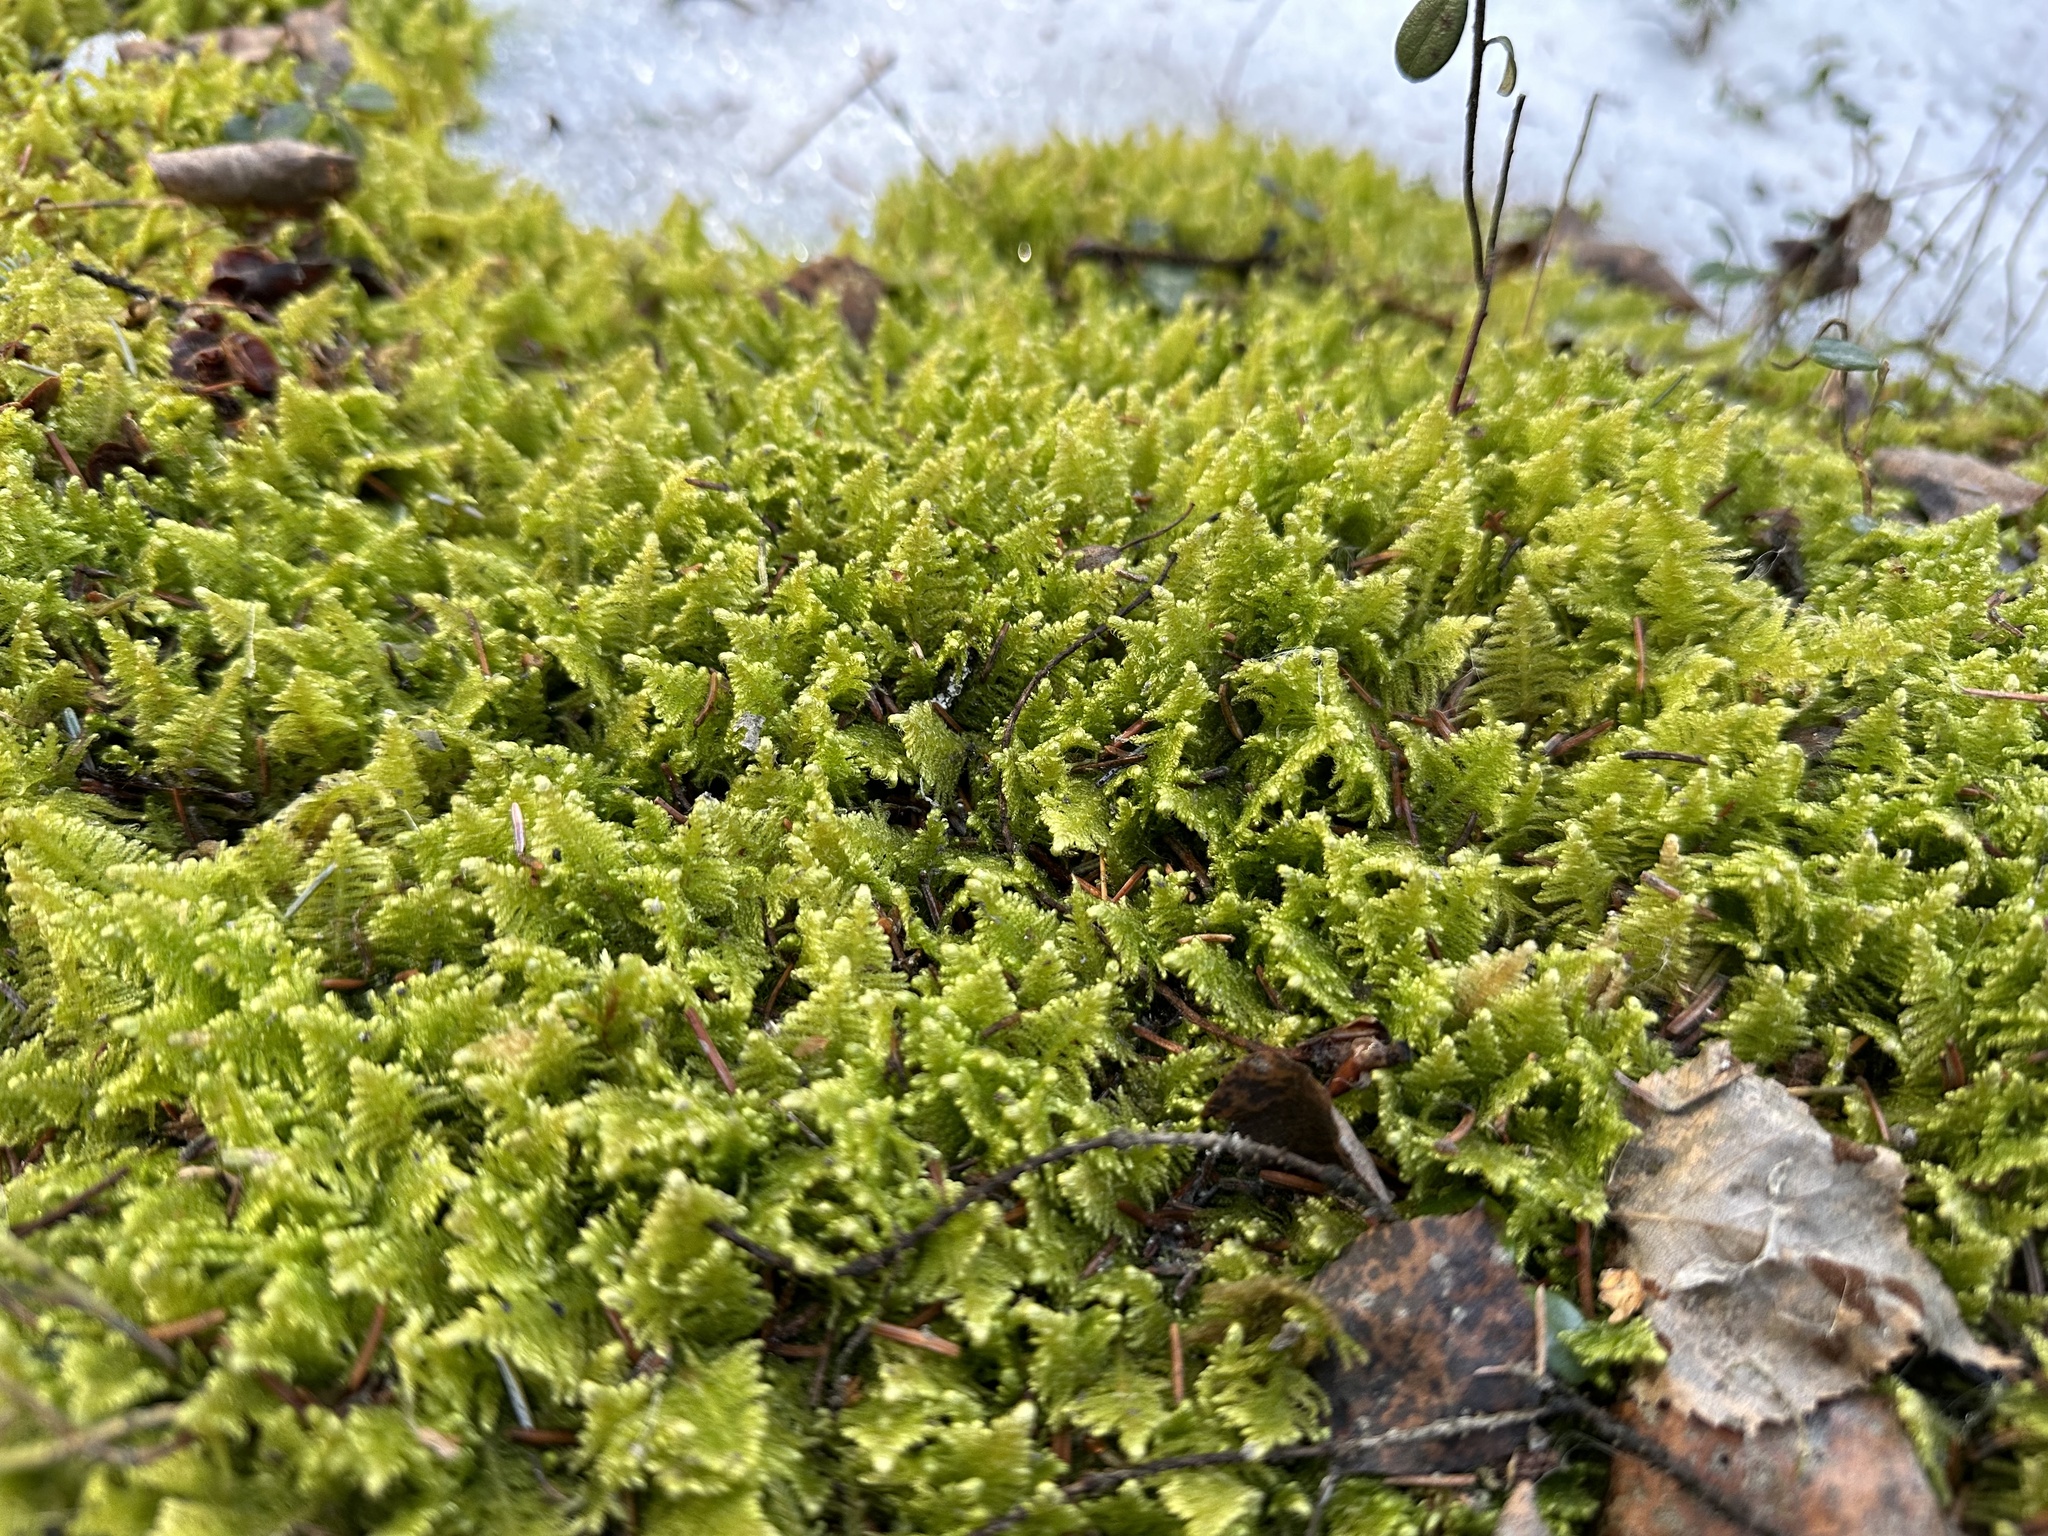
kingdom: Plantae
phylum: Bryophyta
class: Bryopsida
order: Hypnales
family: Pylaisiaceae
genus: Ptilium
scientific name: Ptilium crista-castrensis
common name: Knight's plume moss
